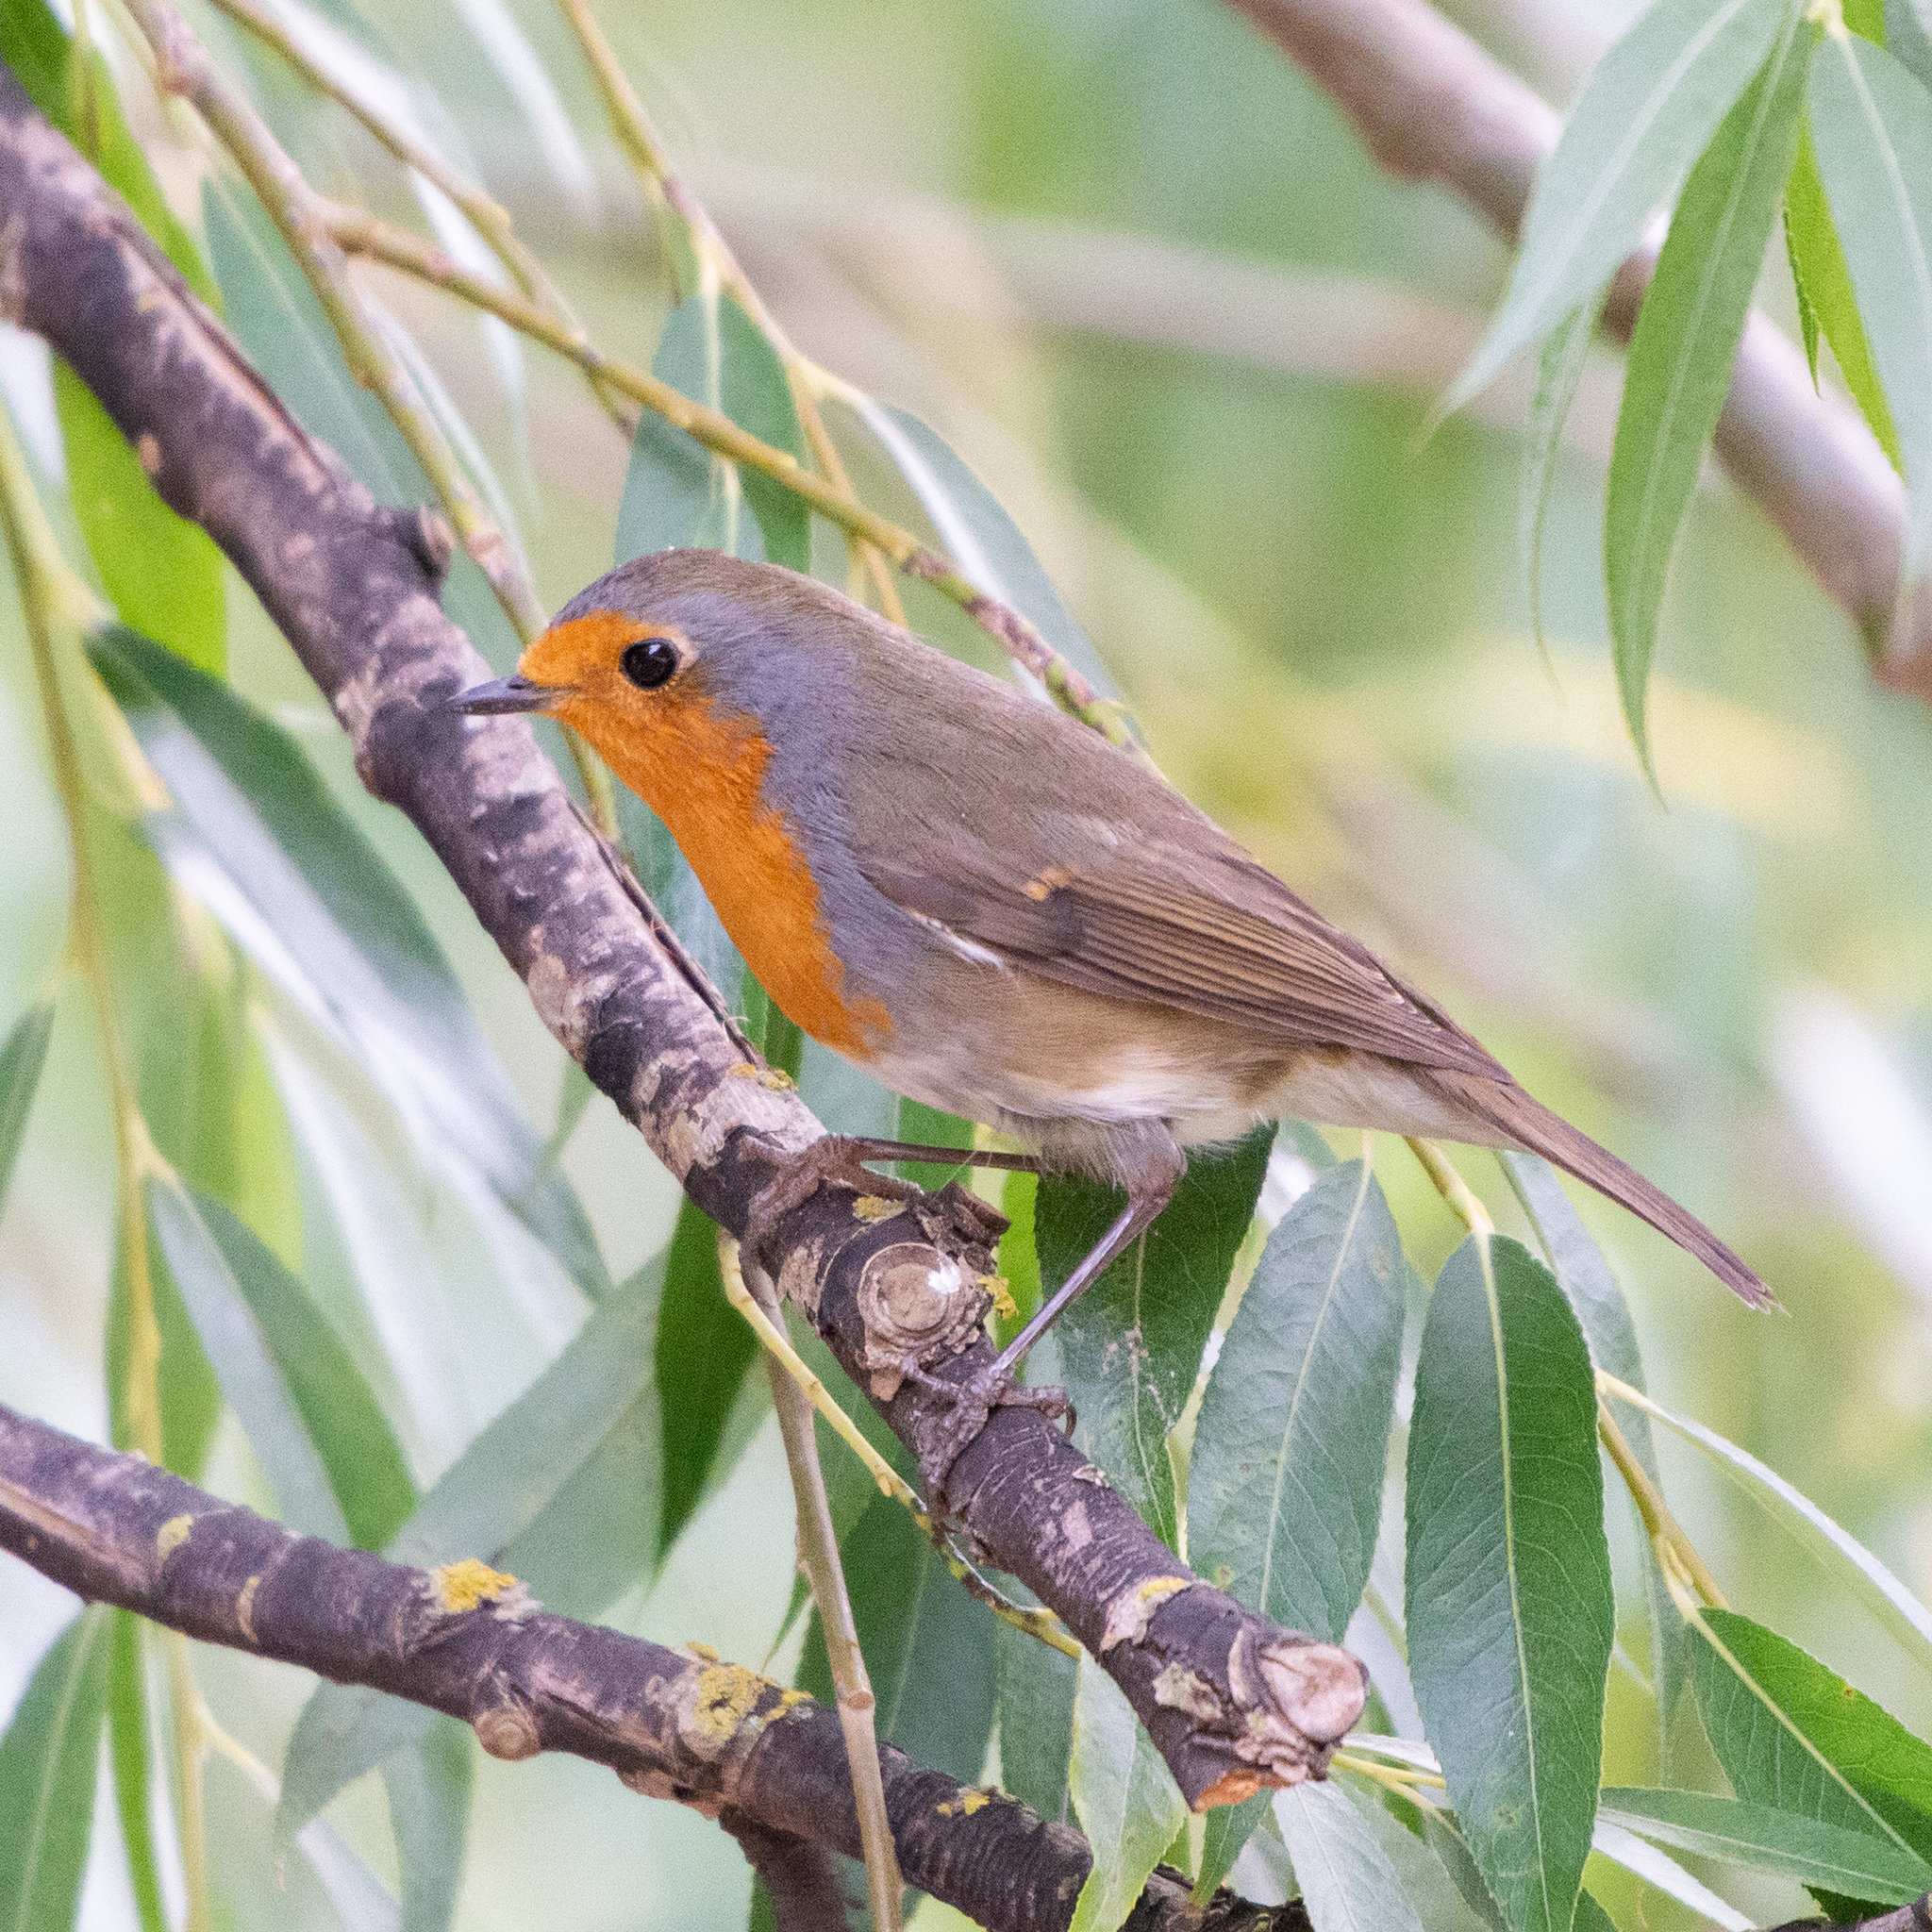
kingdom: Animalia
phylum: Chordata
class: Aves
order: Passeriformes
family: Muscicapidae
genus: Erithacus
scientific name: Erithacus rubecula
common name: European robin
